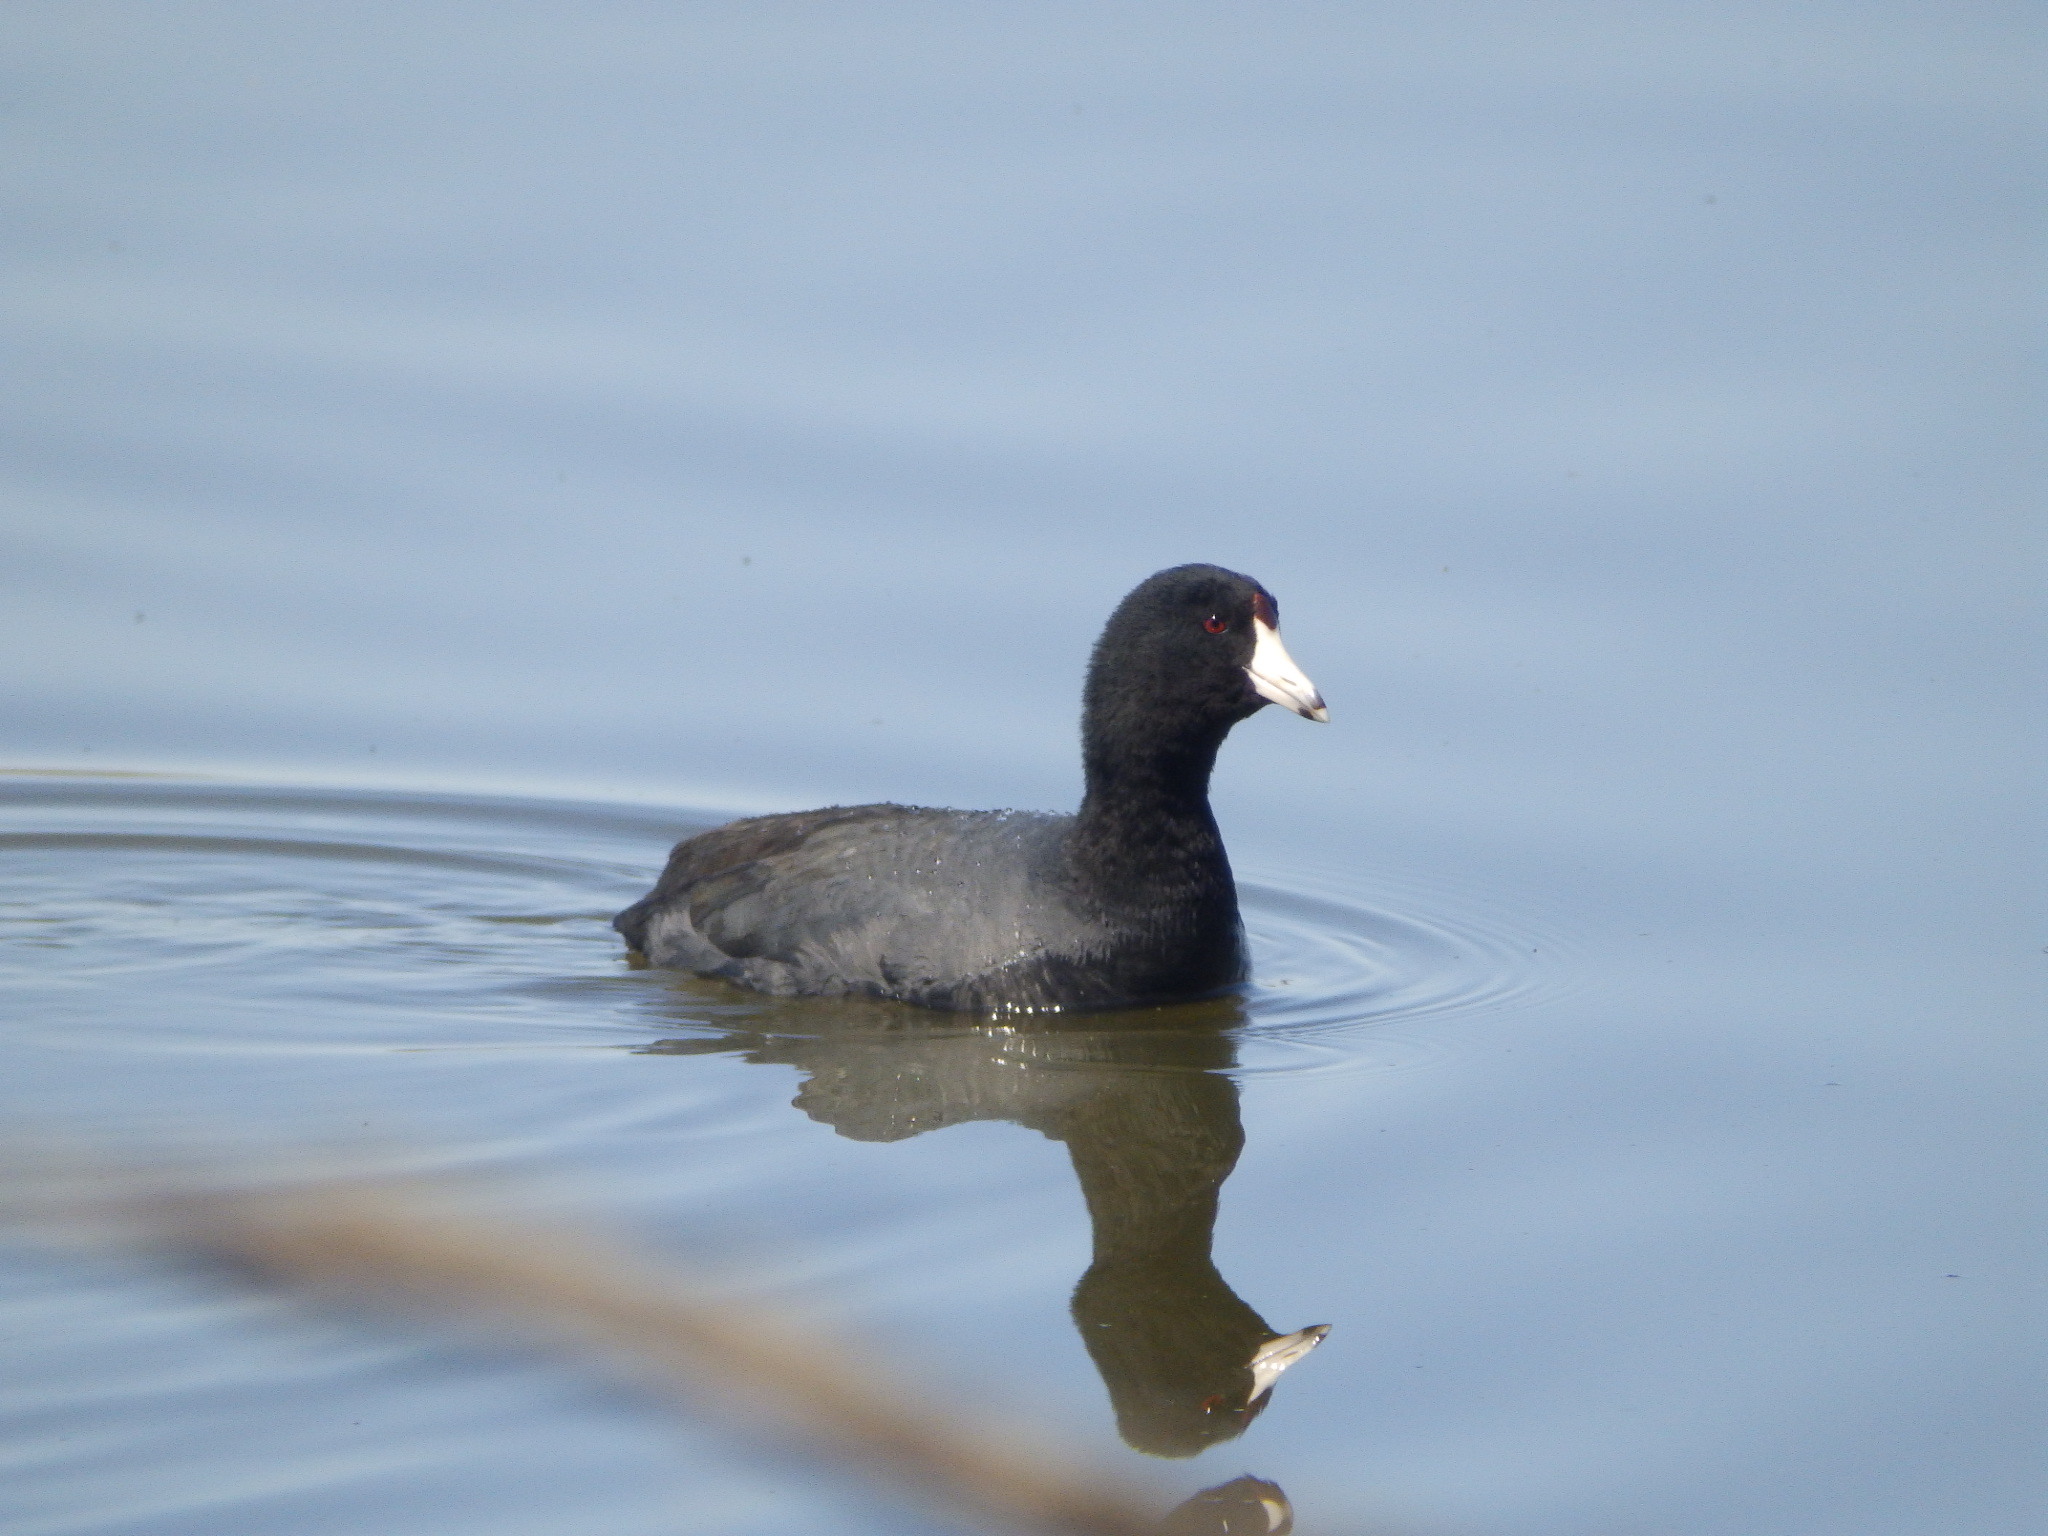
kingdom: Animalia
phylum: Chordata
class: Aves
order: Gruiformes
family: Rallidae
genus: Fulica
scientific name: Fulica americana
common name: American coot
